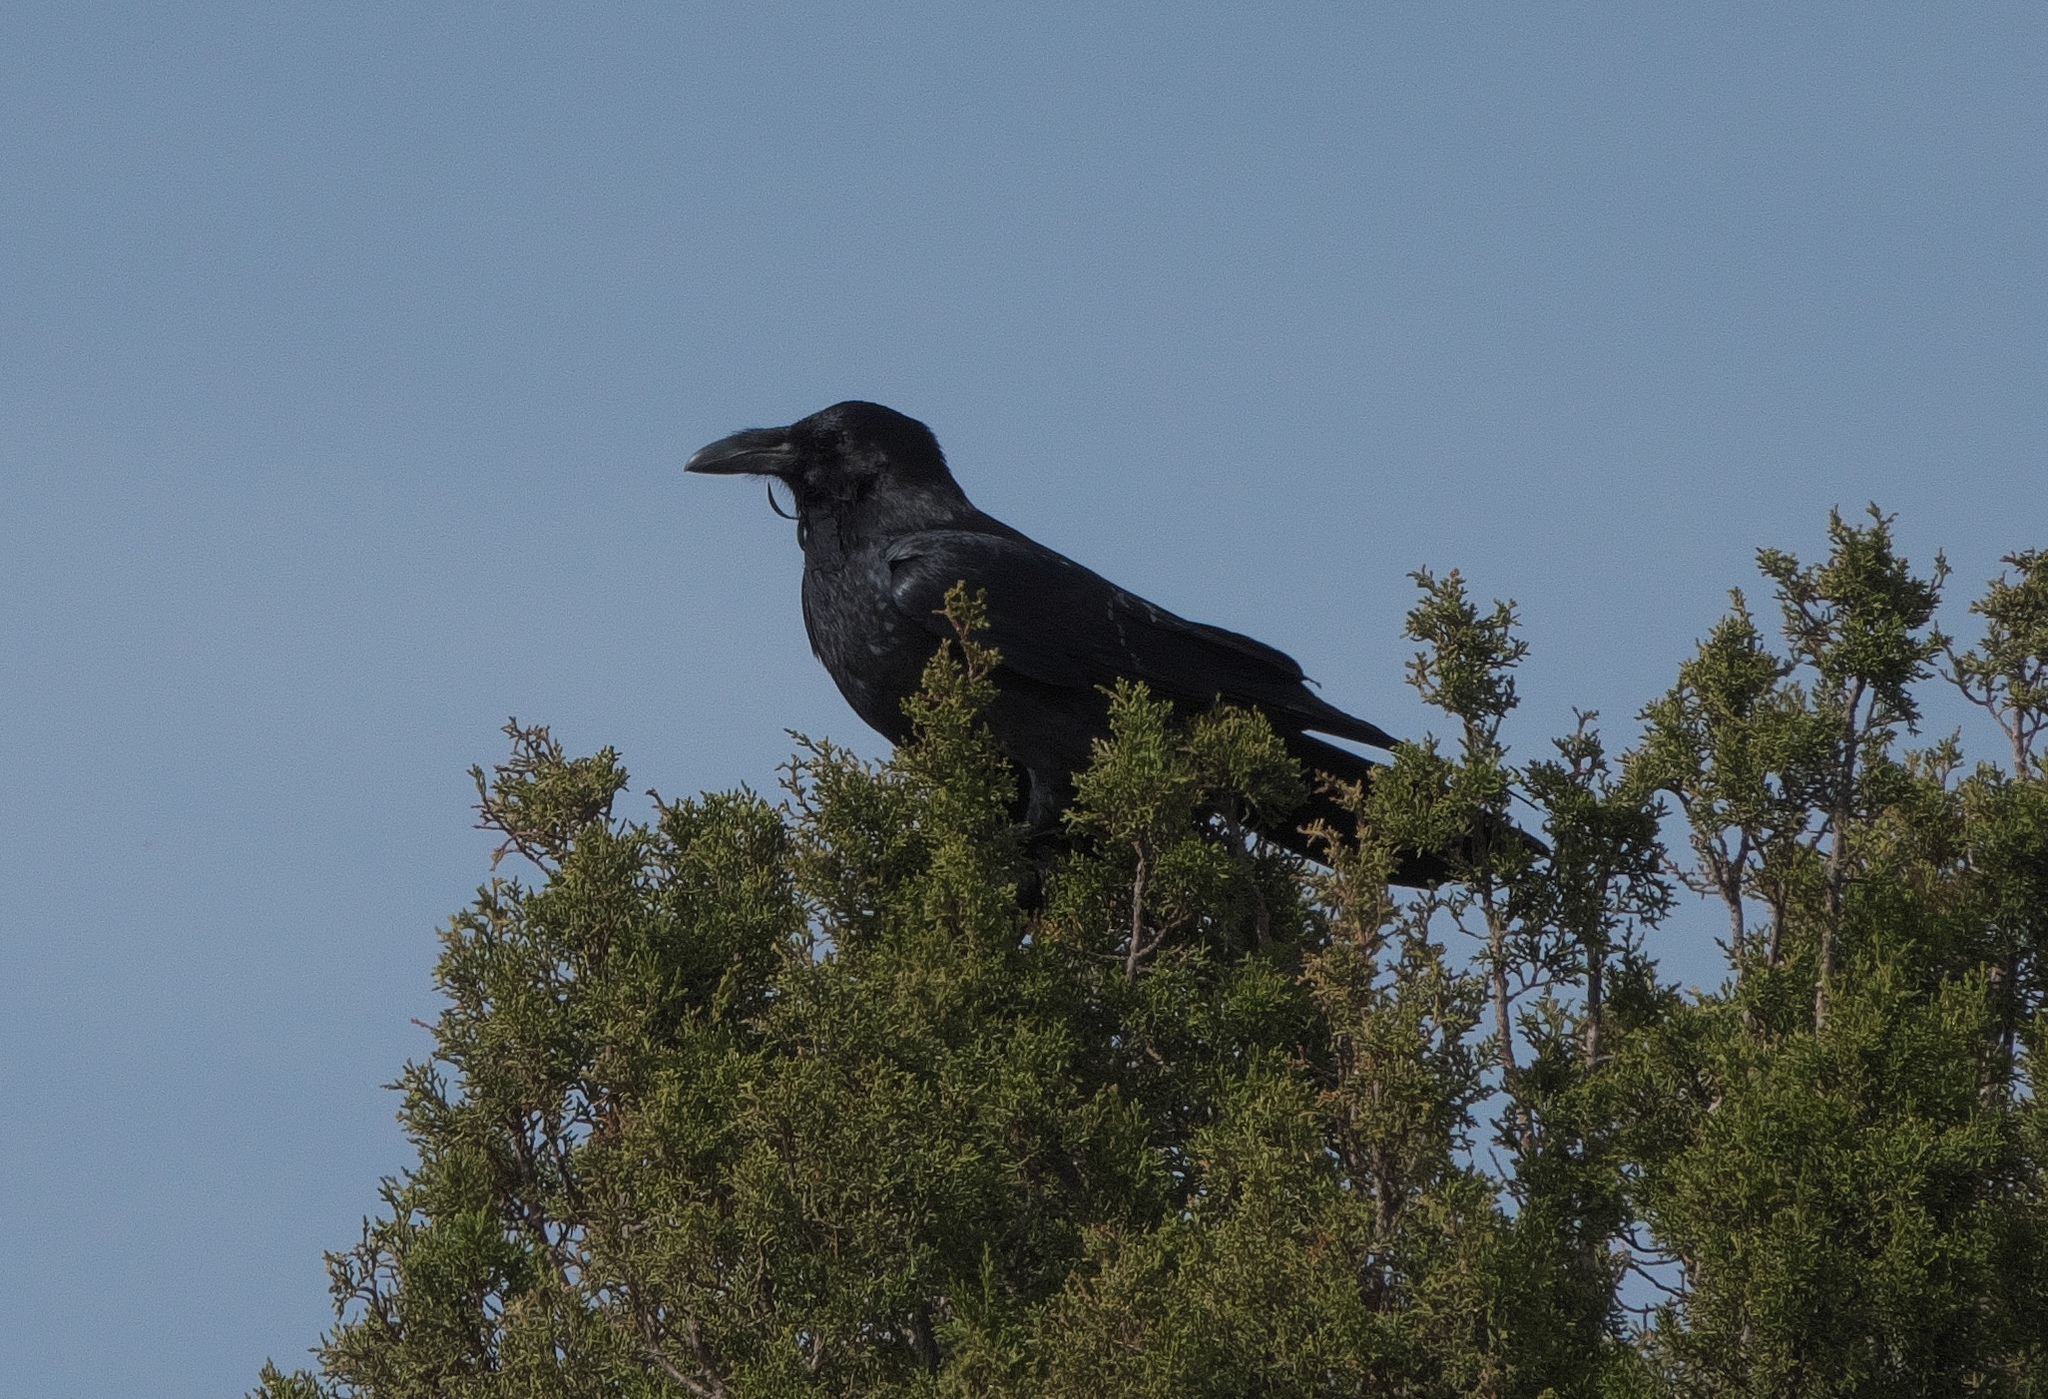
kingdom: Animalia
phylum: Chordata
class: Aves
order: Passeriformes
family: Corvidae
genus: Corvus
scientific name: Corvus corax
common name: Common raven
